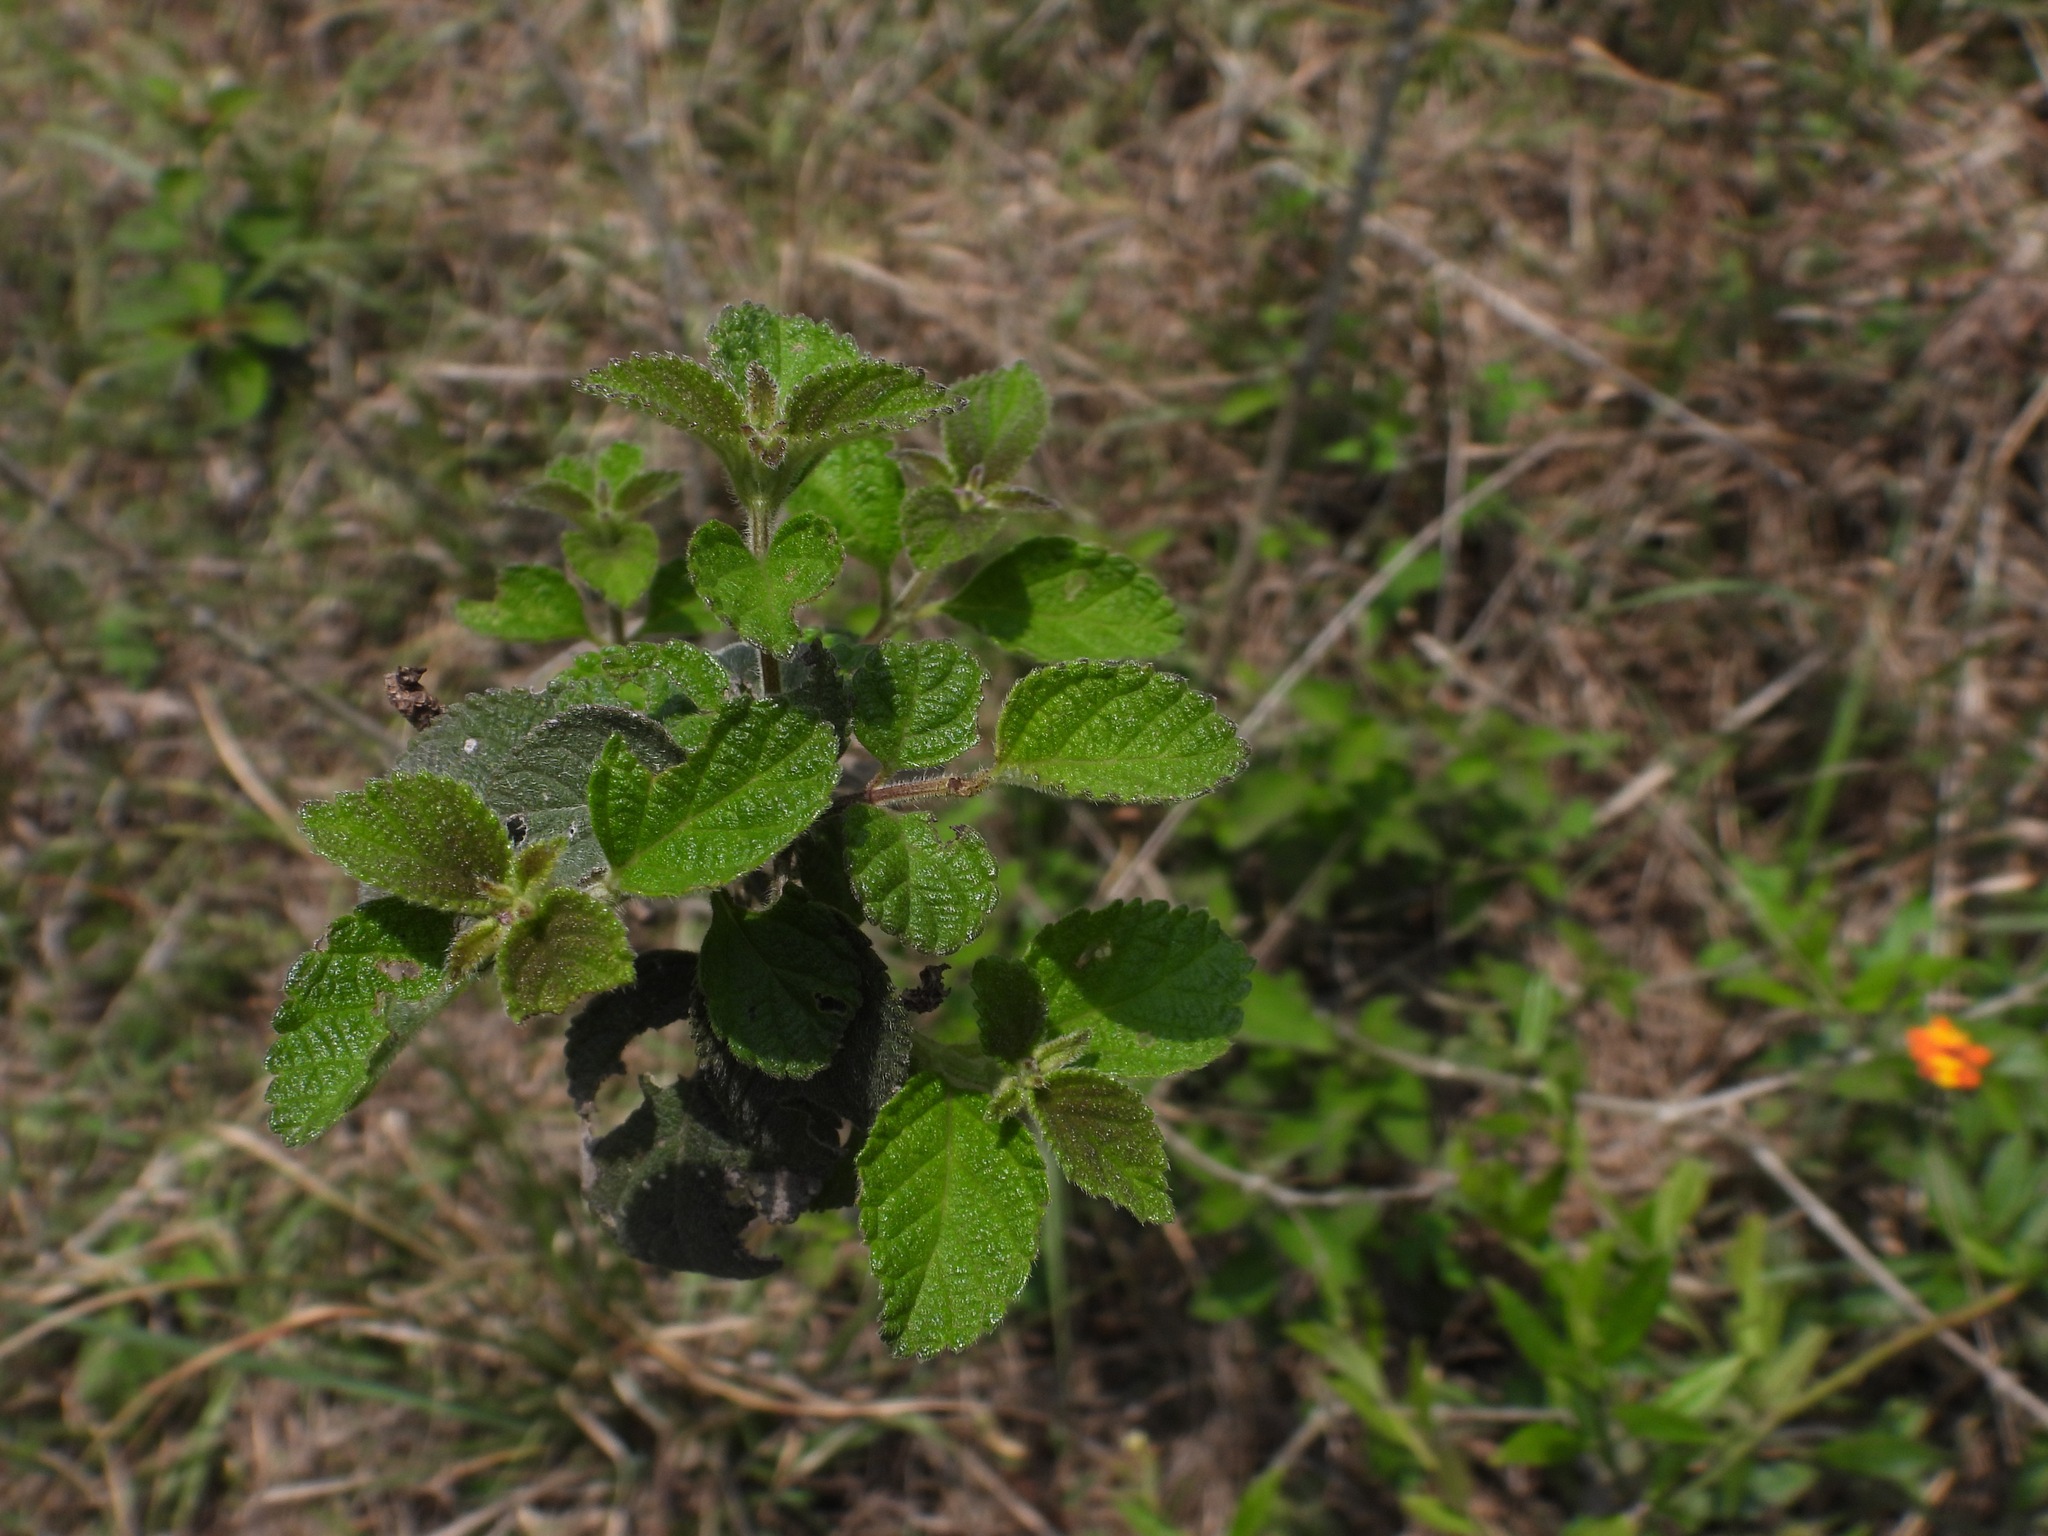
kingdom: Plantae
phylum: Tracheophyta
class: Magnoliopsida
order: Lamiales
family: Verbenaceae
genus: Lantana
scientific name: Lantana camara
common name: Lantana
